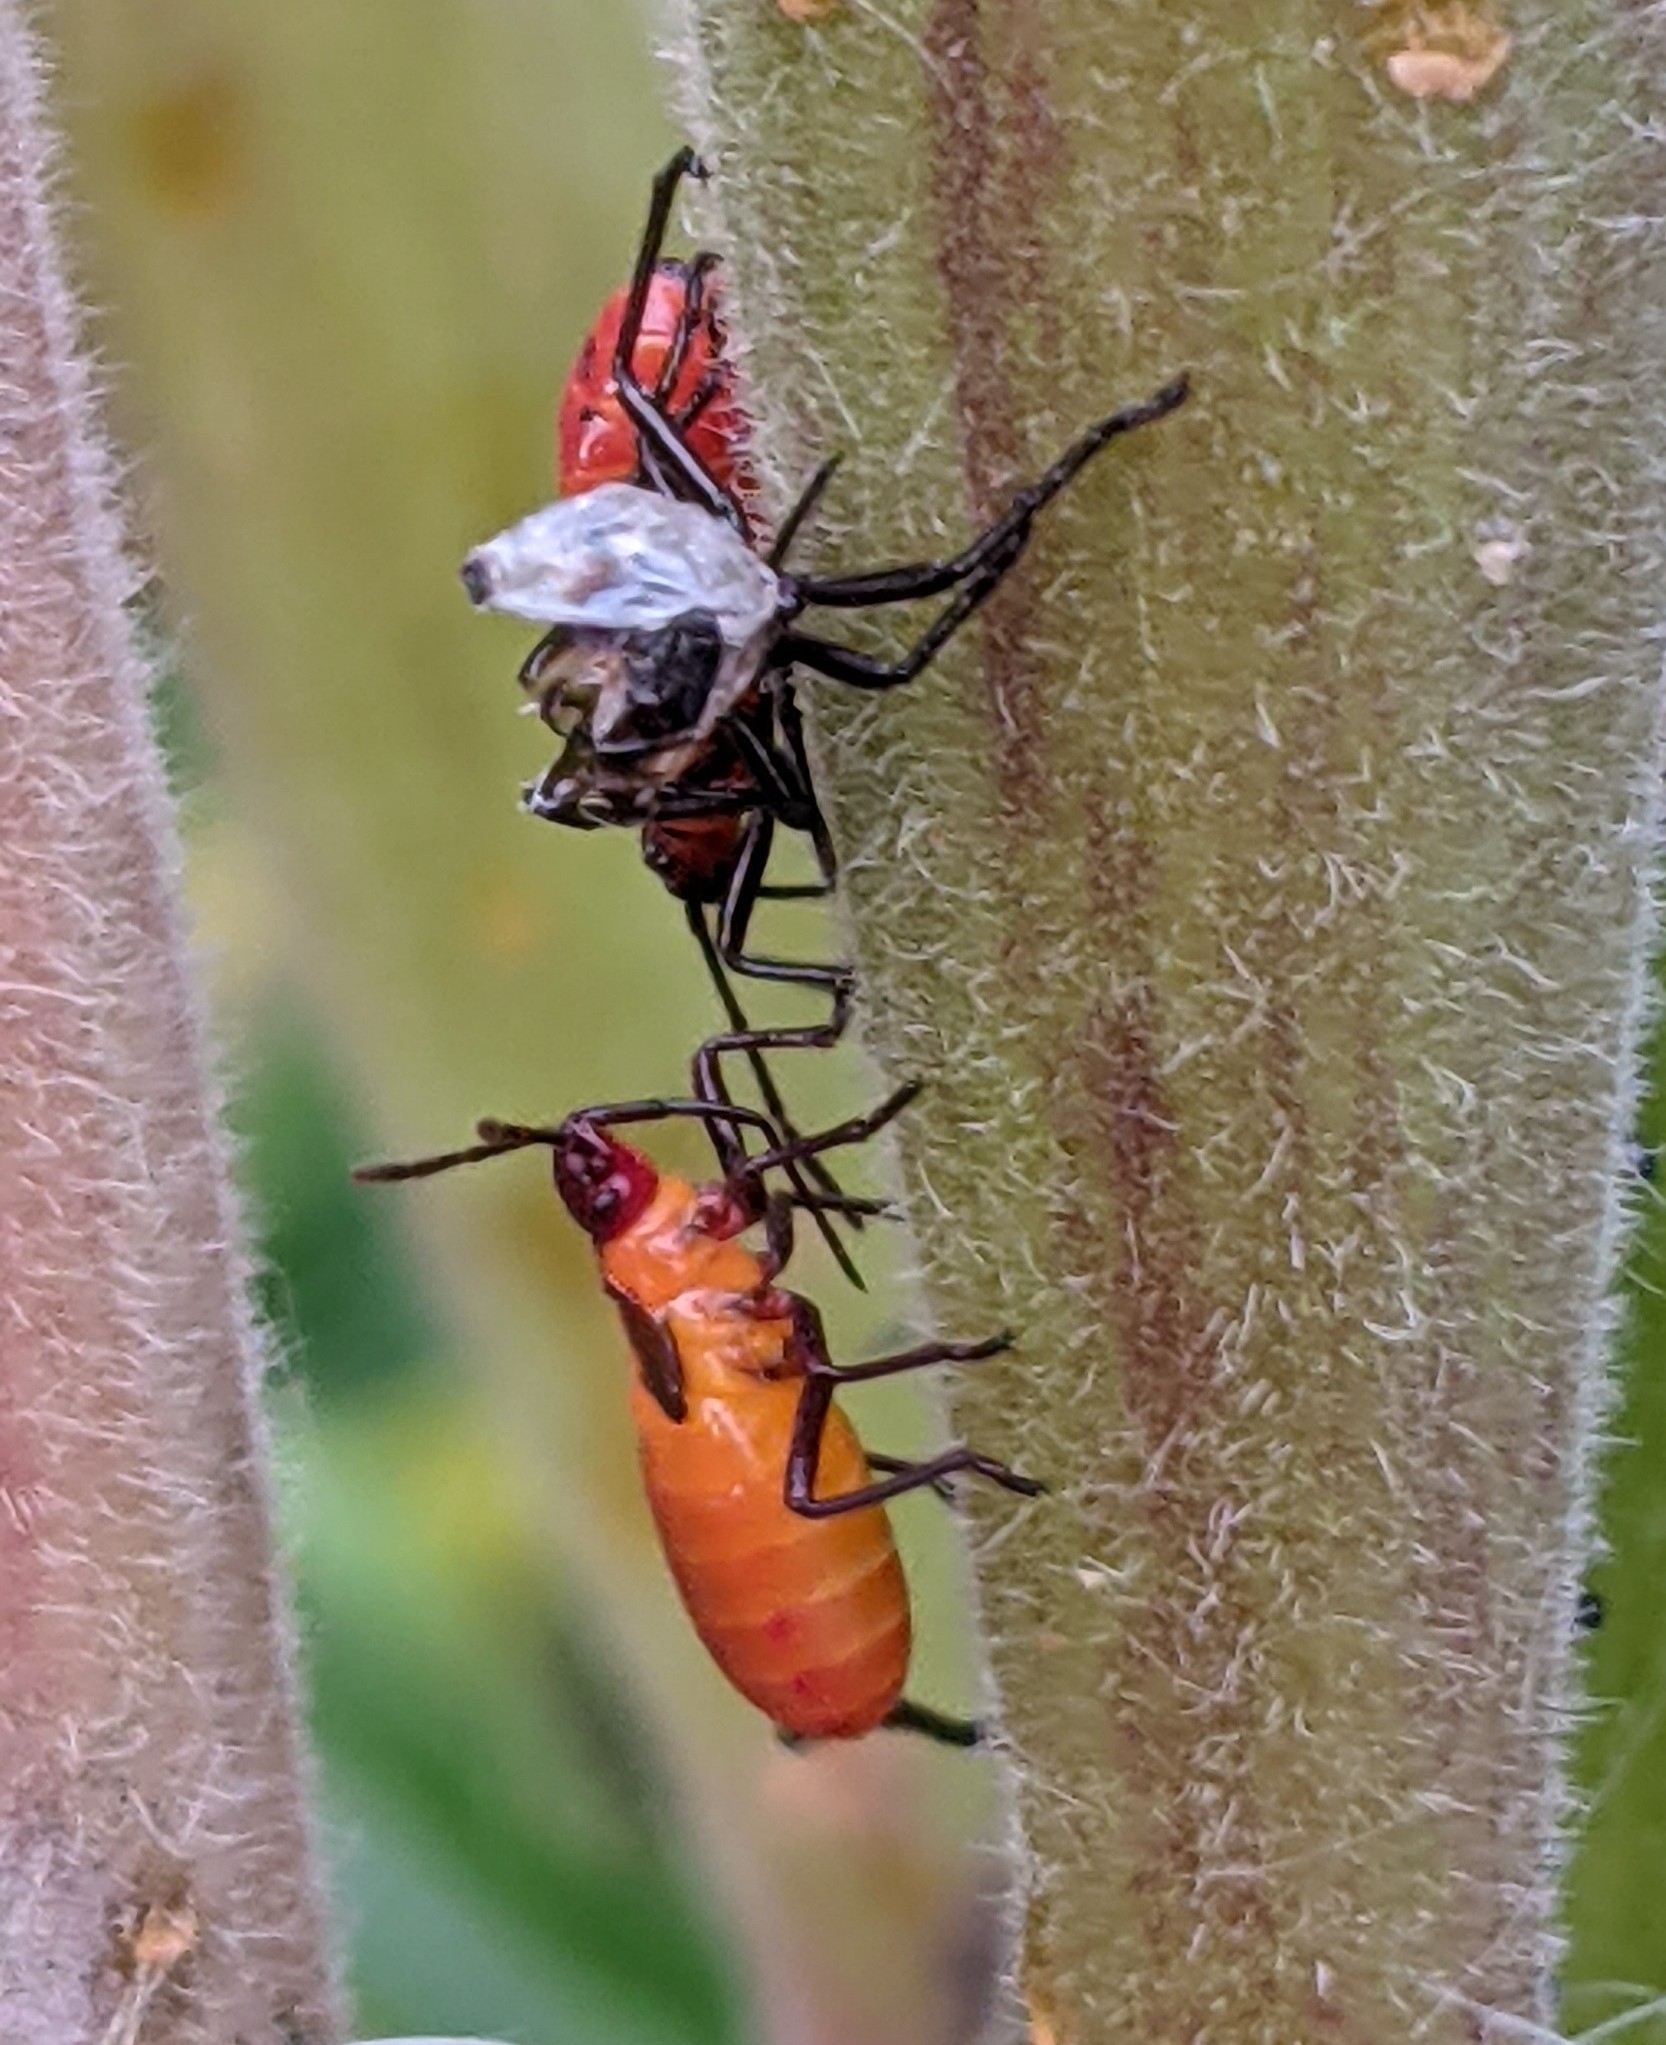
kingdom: Animalia
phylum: Arthropoda
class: Insecta
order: Hemiptera
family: Lygaeidae
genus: Oncopeltus
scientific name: Oncopeltus fasciatus
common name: Large milkweed bug
